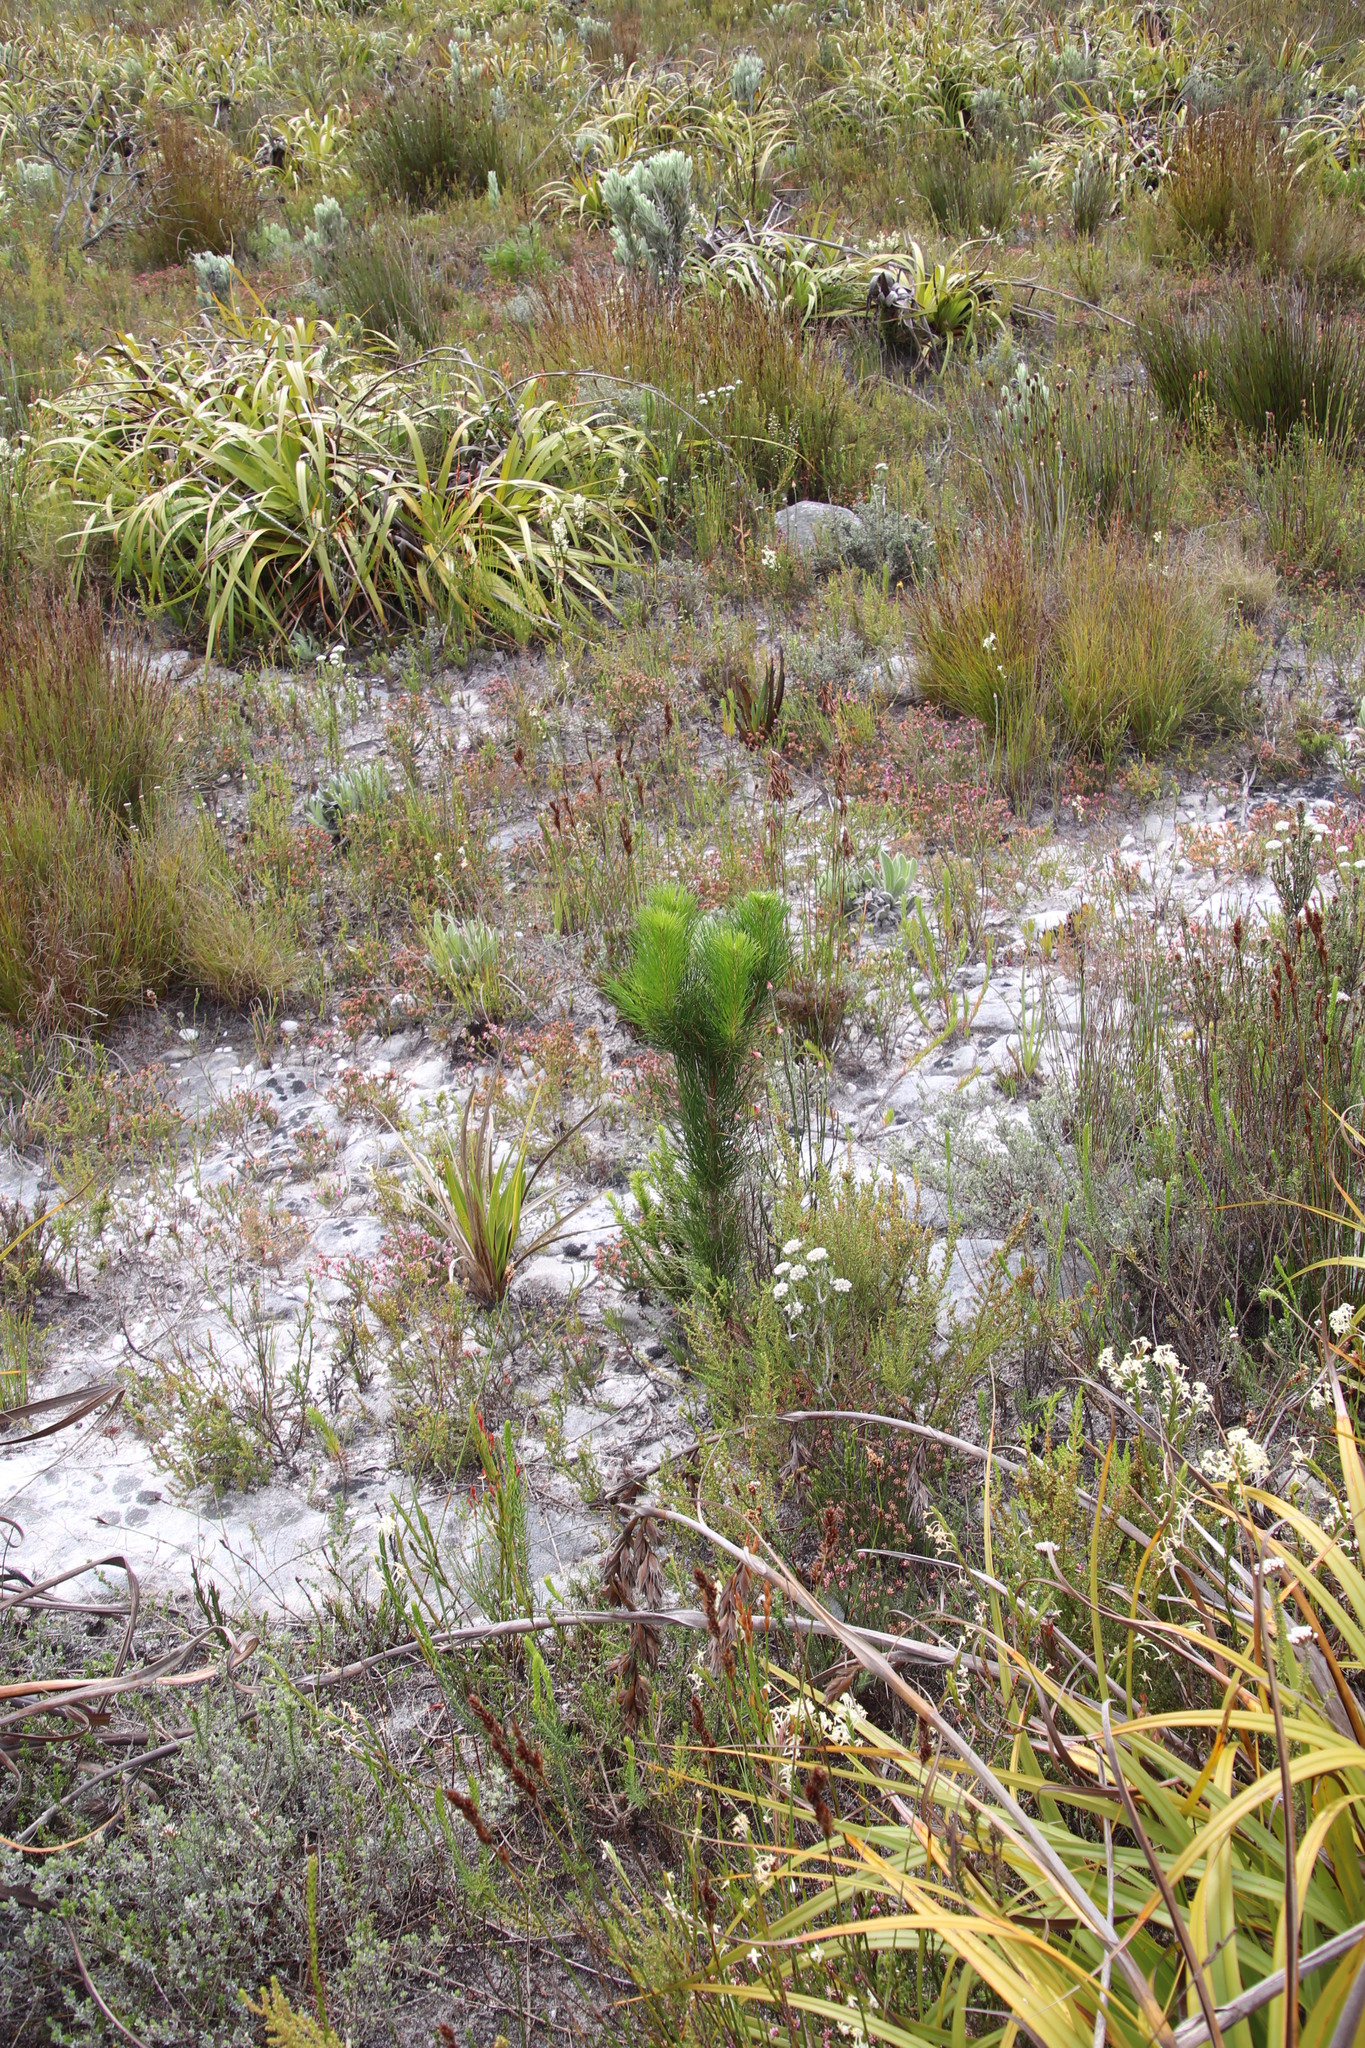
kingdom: Plantae
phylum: Tracheophyta
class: Pinopsida
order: Pinales
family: Pinaceae
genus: Pinus
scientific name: Pinus pinaster
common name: Maritime pine
